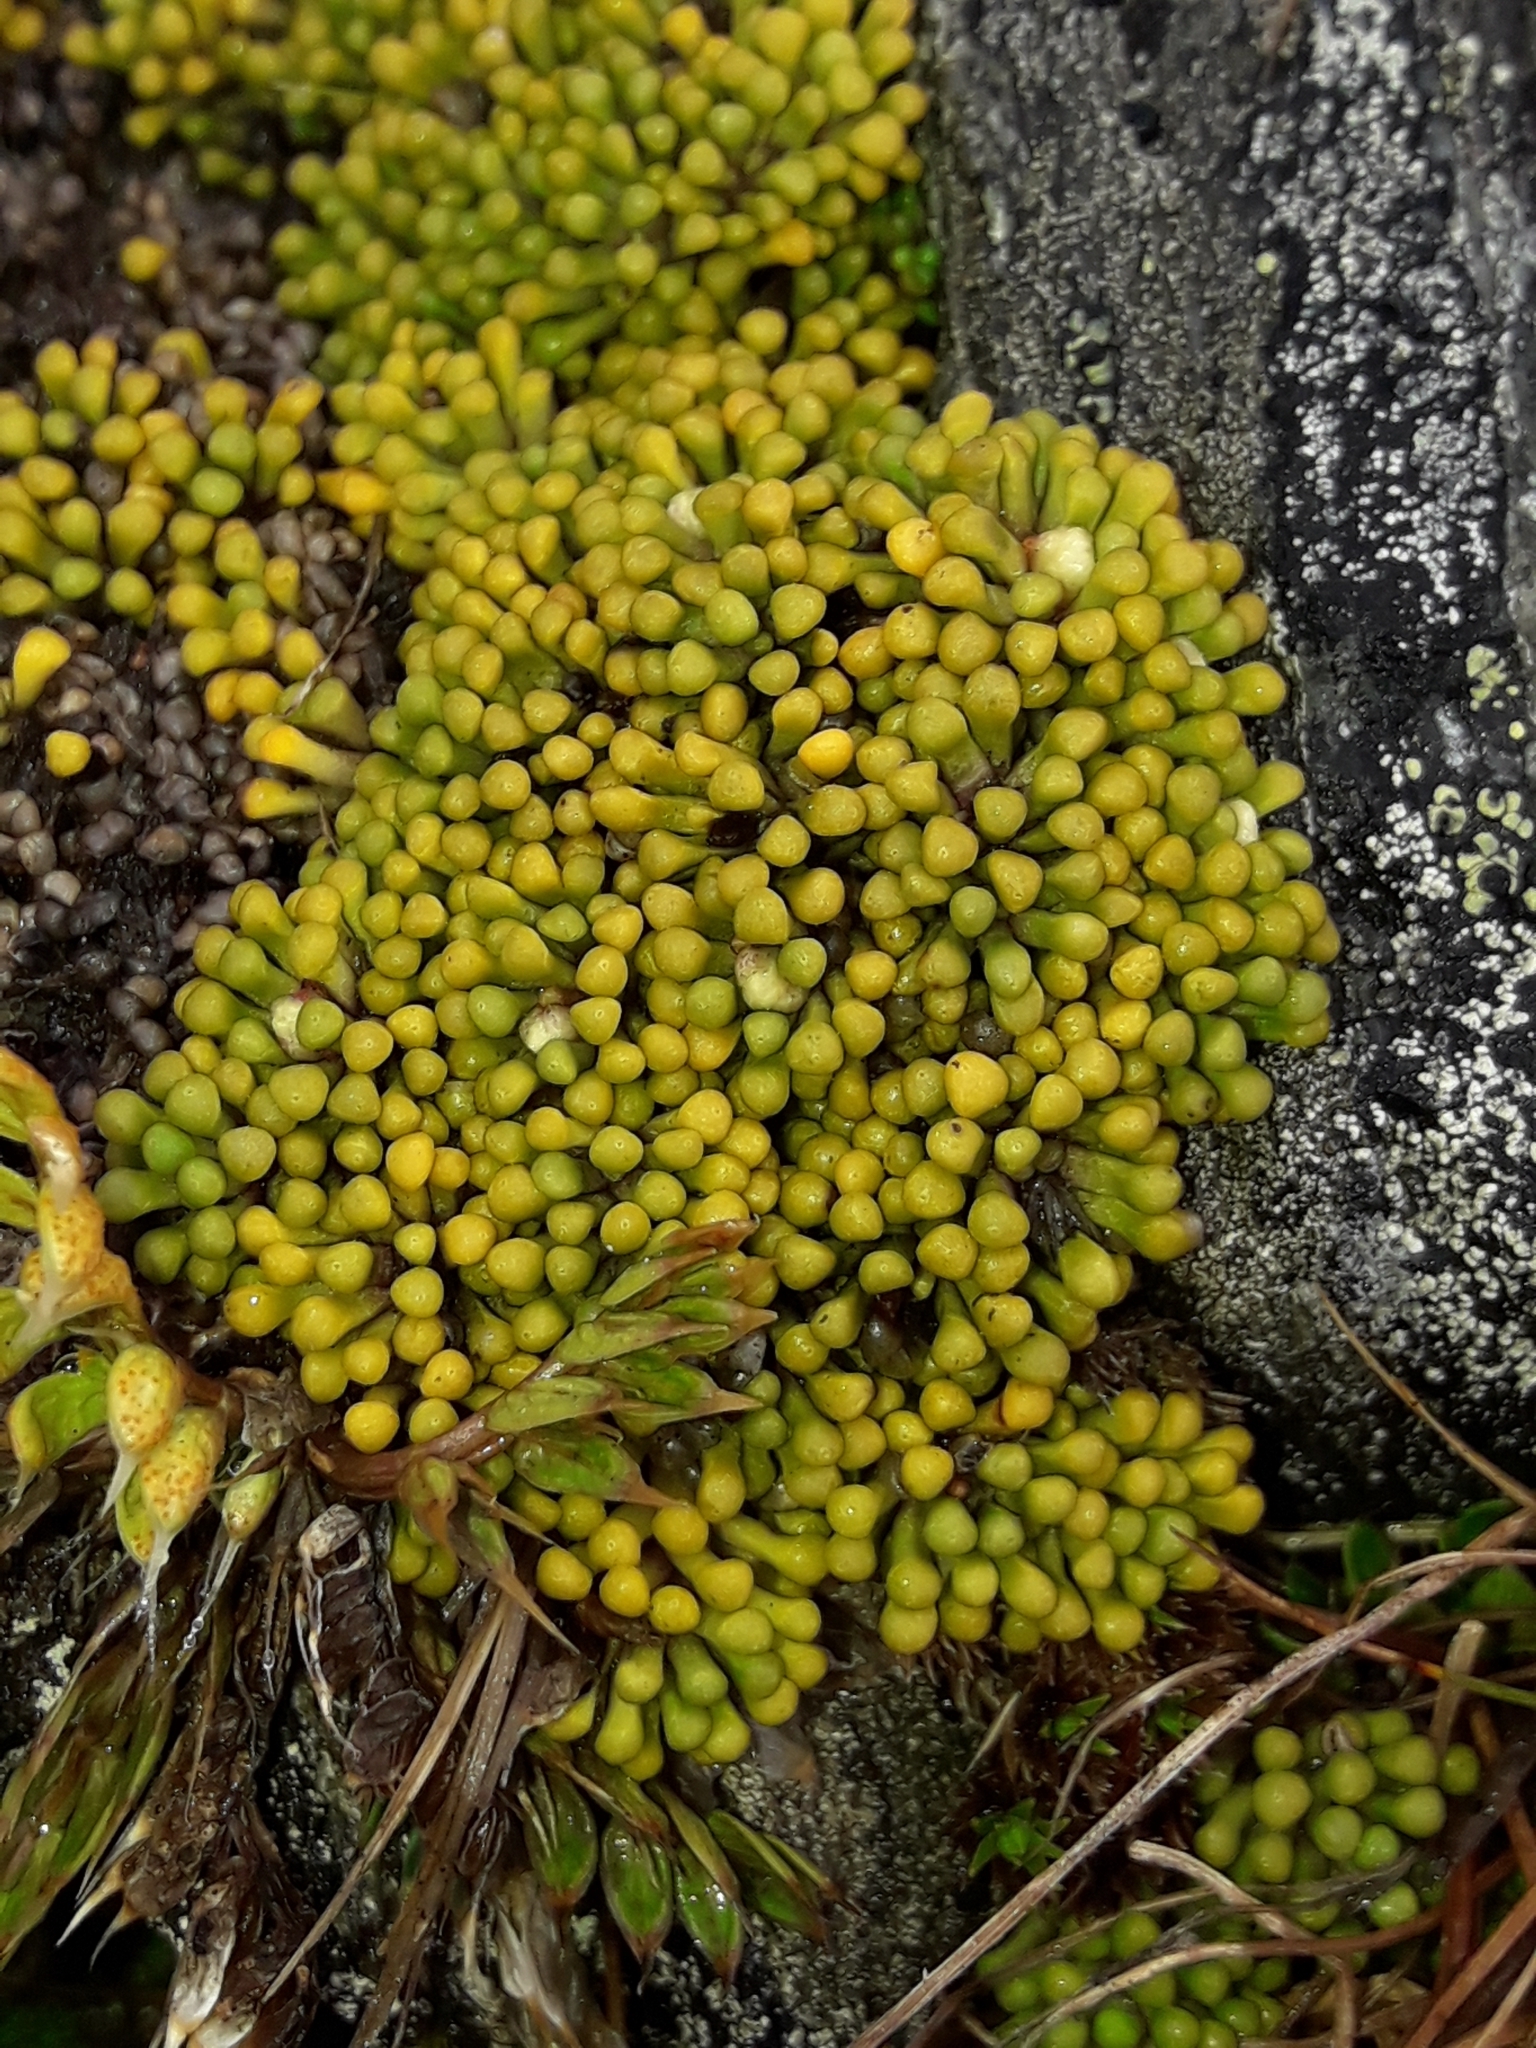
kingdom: Plantae
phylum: Tracheophyta
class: Magnoliopsida
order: Asterales
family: Stylidiaceae
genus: Phyllachne
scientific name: Phyllachne rubra
